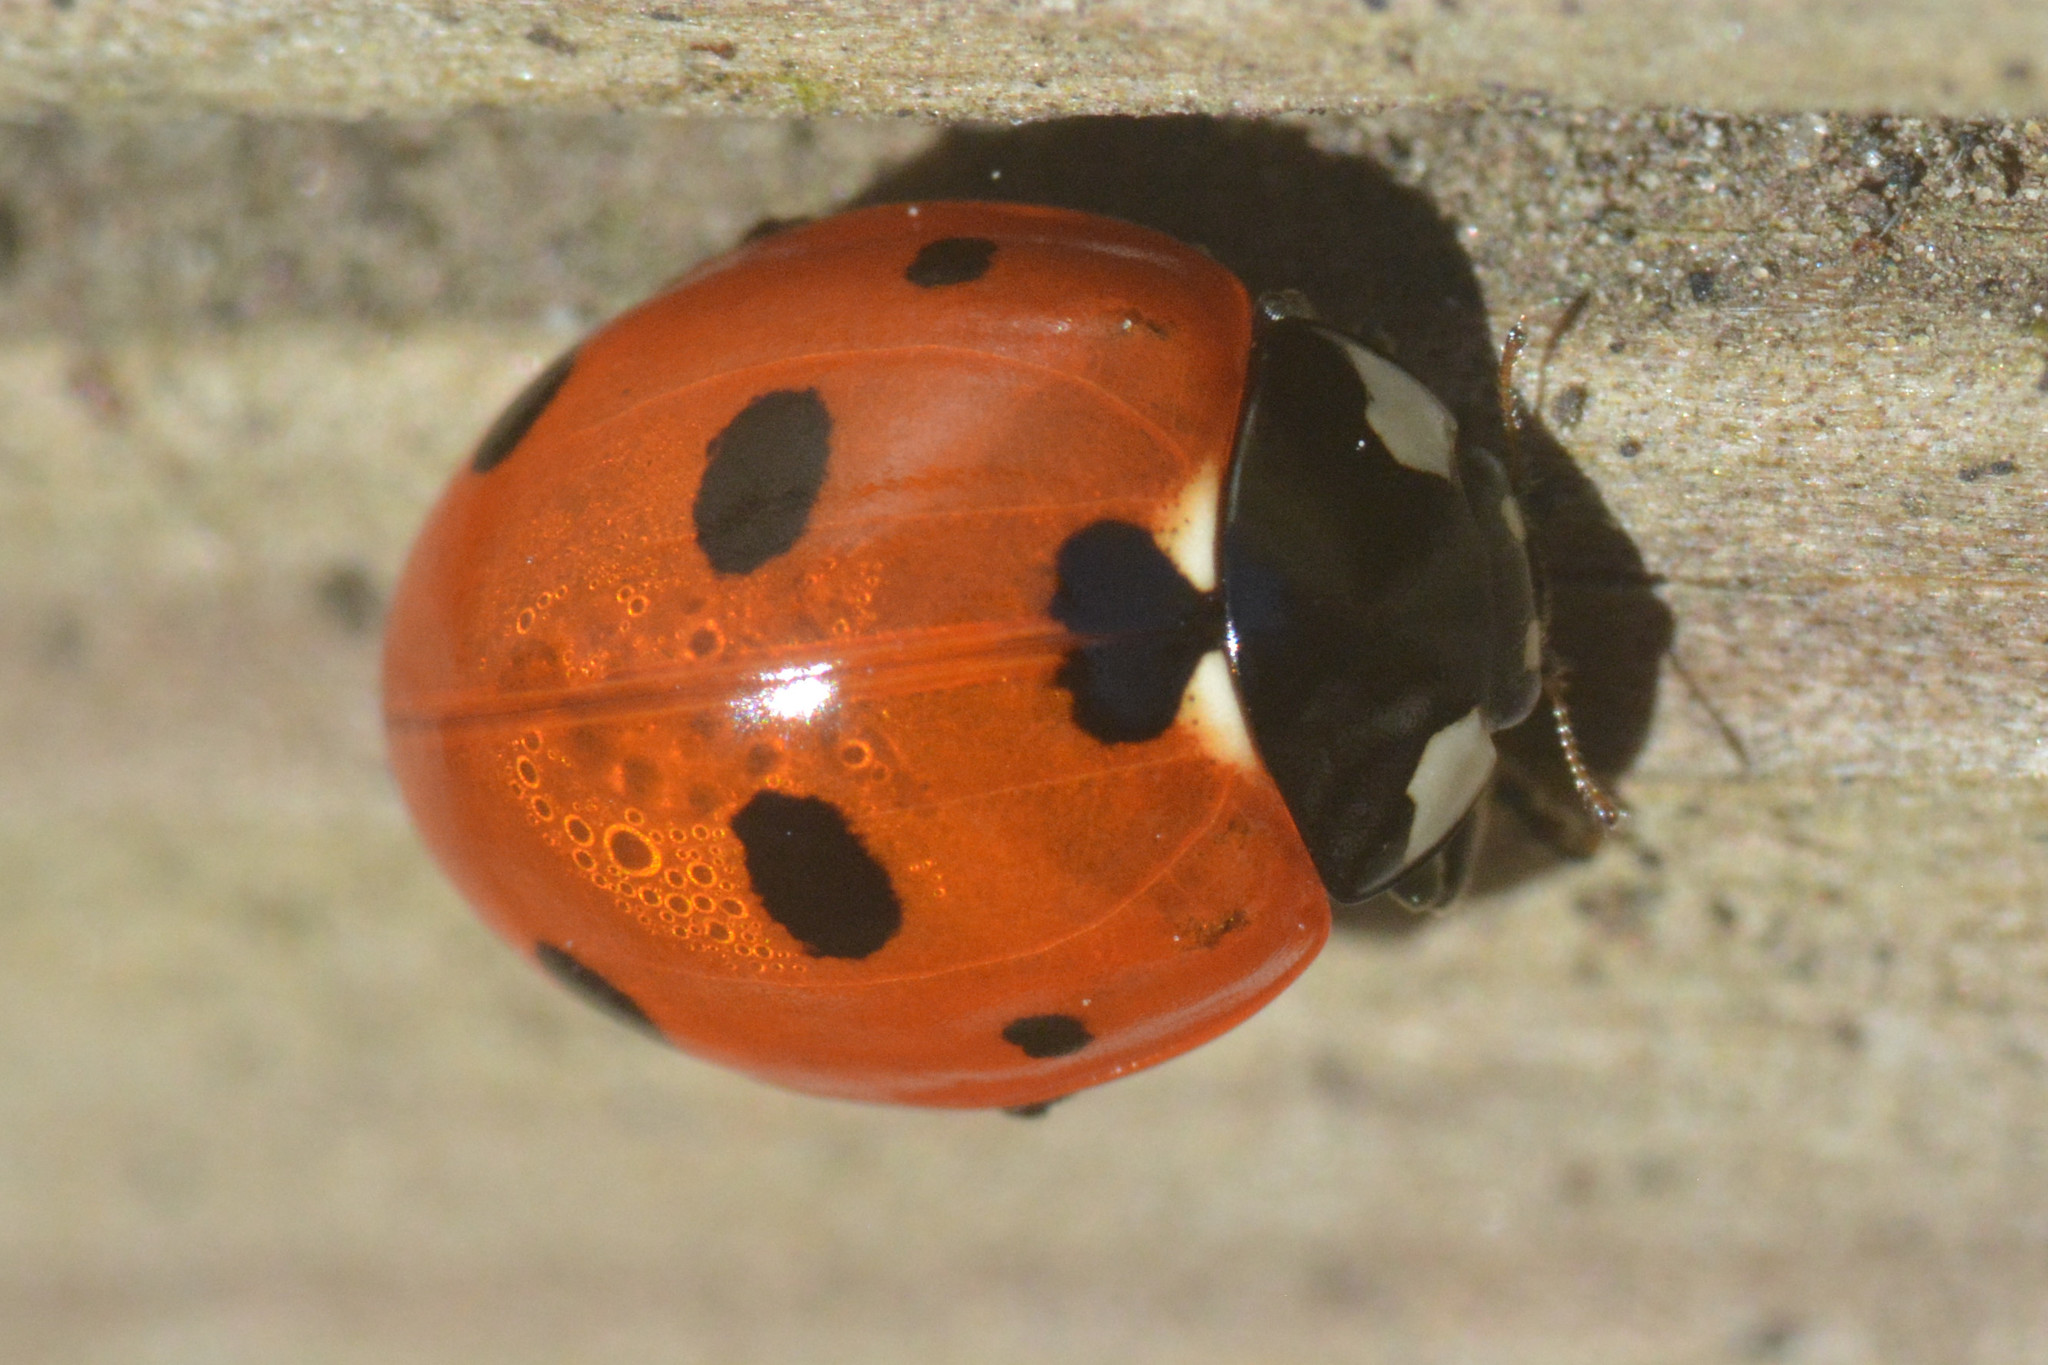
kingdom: Animalia
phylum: Arthropoda
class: Insecta
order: Coleoptera
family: Coccinellidae
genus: Coccinella
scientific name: Coccinella septempunctata
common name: Sevenspotted lady beetle
